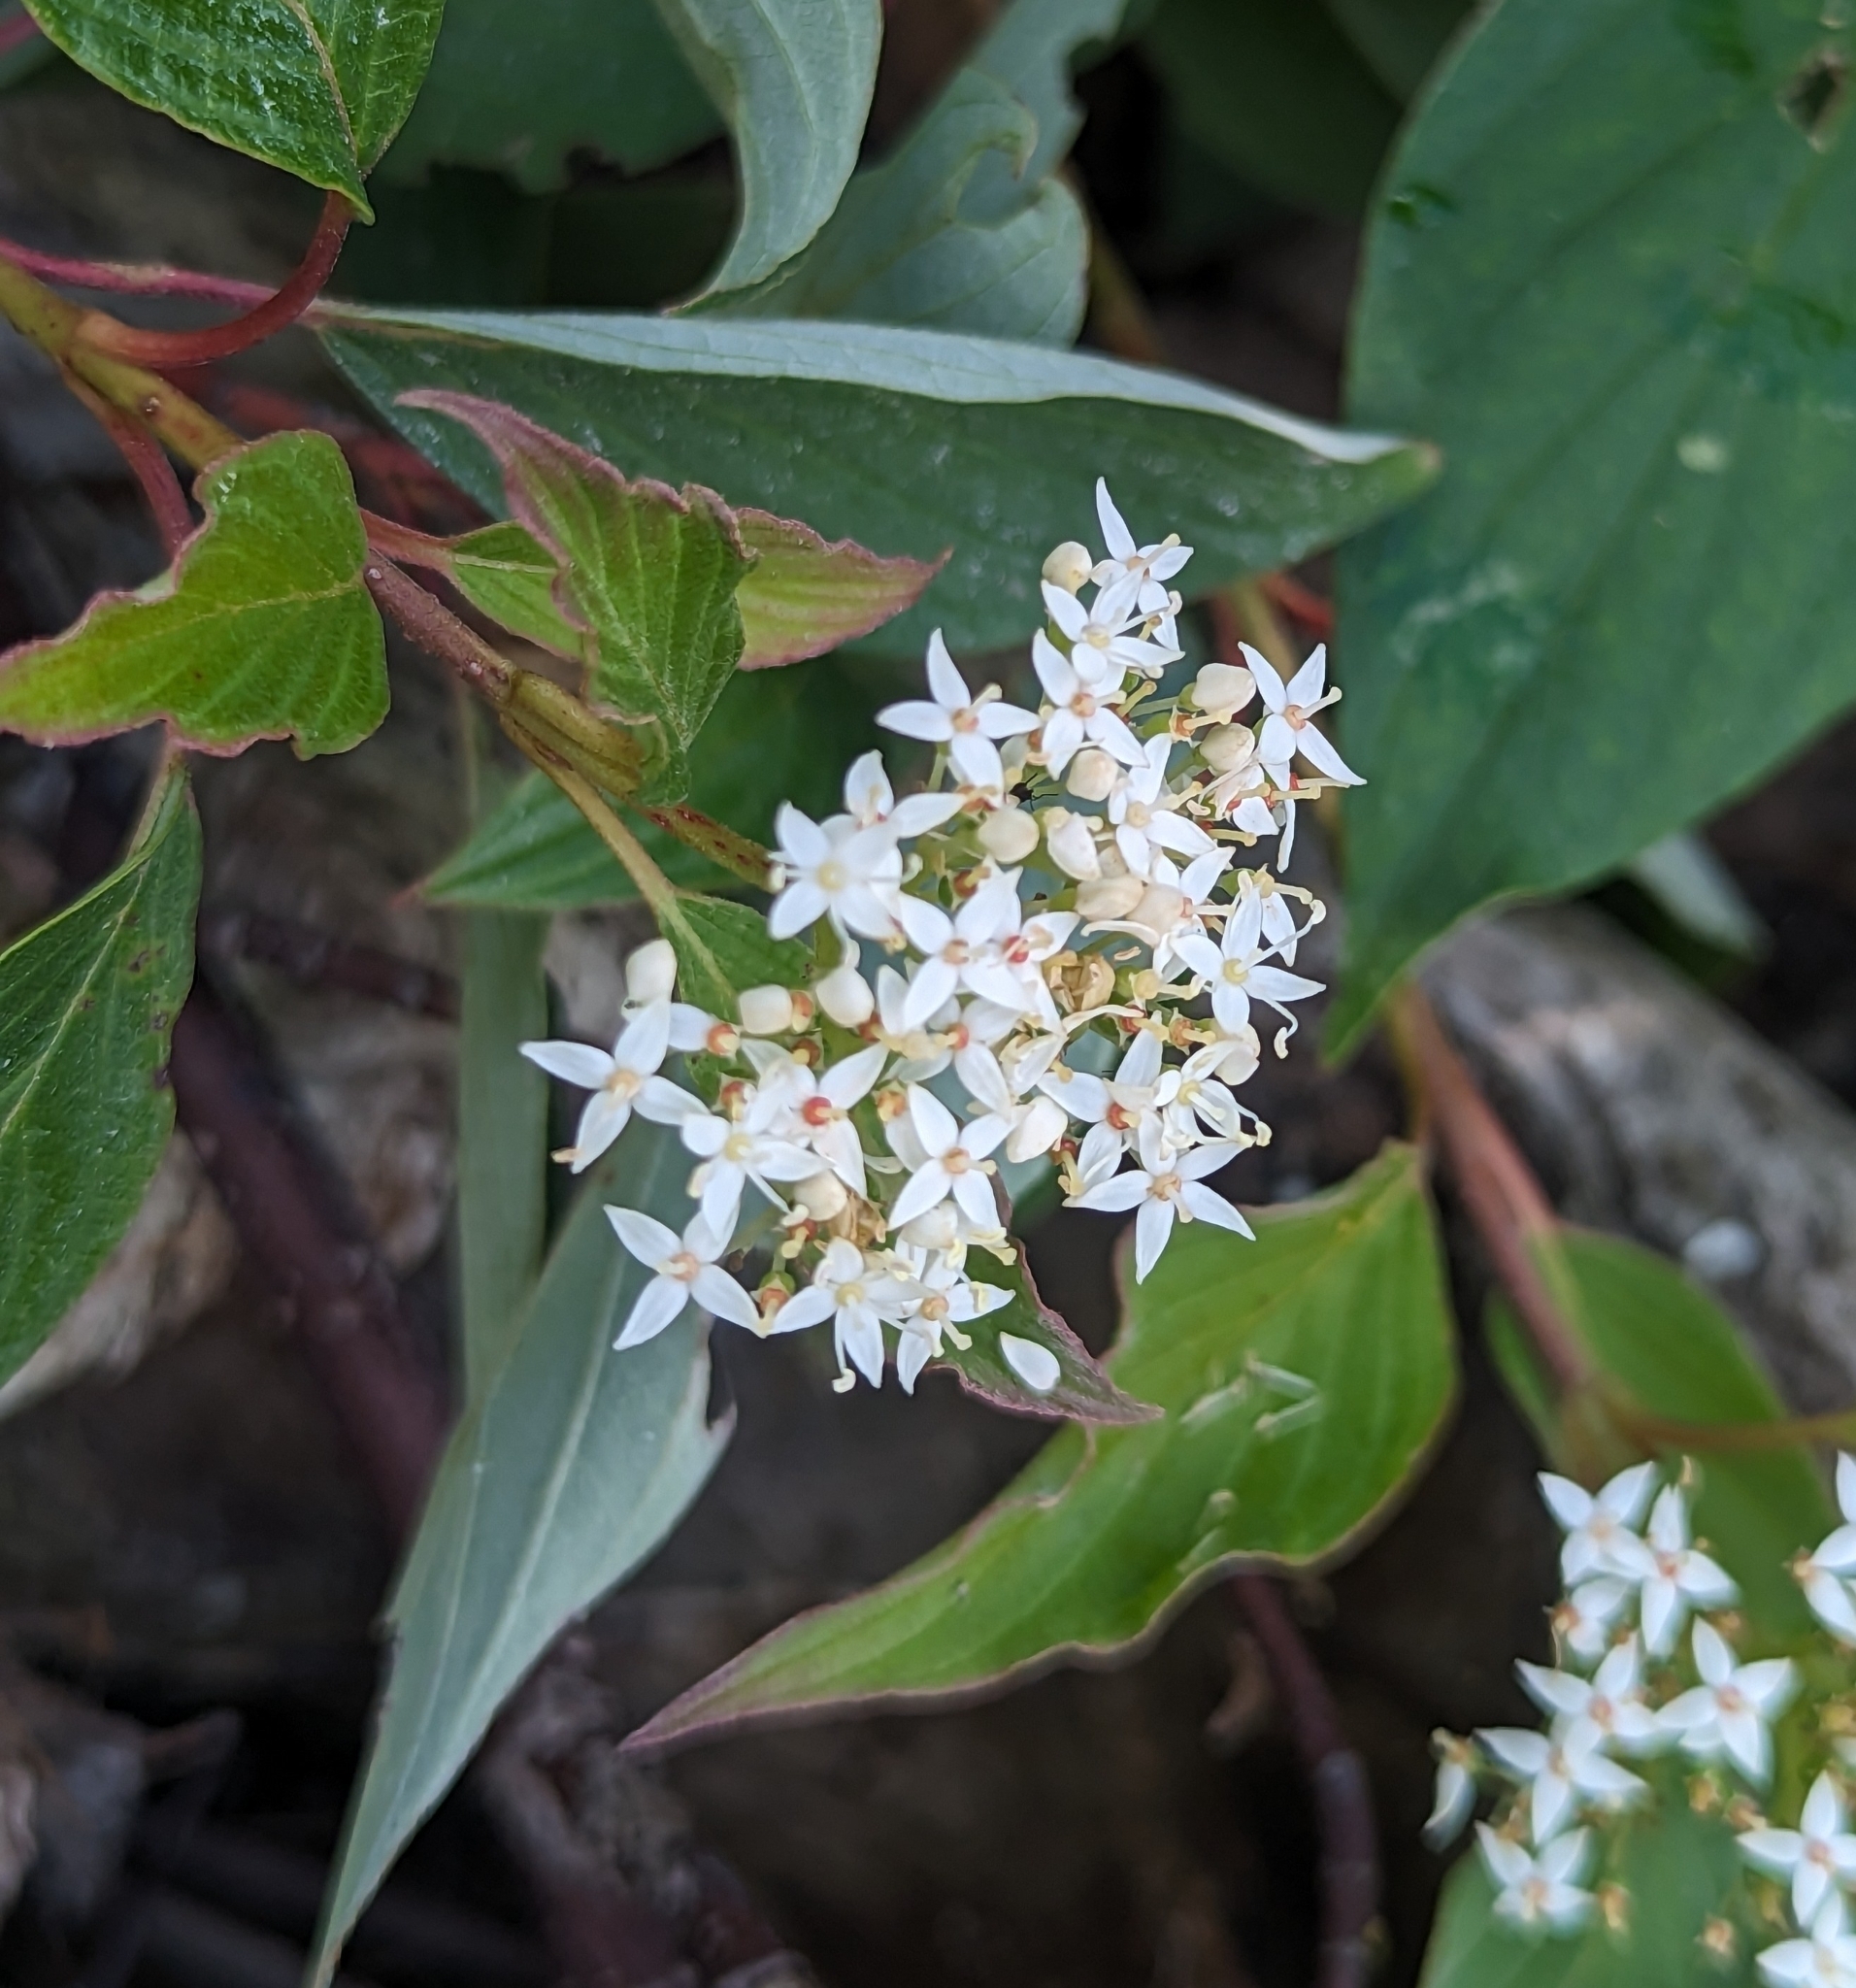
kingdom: Plantae
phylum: Tracheophyta
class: Magnoliopsida
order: Cornales
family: Cornaceae
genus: Cornus
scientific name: Cornus sericea
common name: Red-osier dogwood
